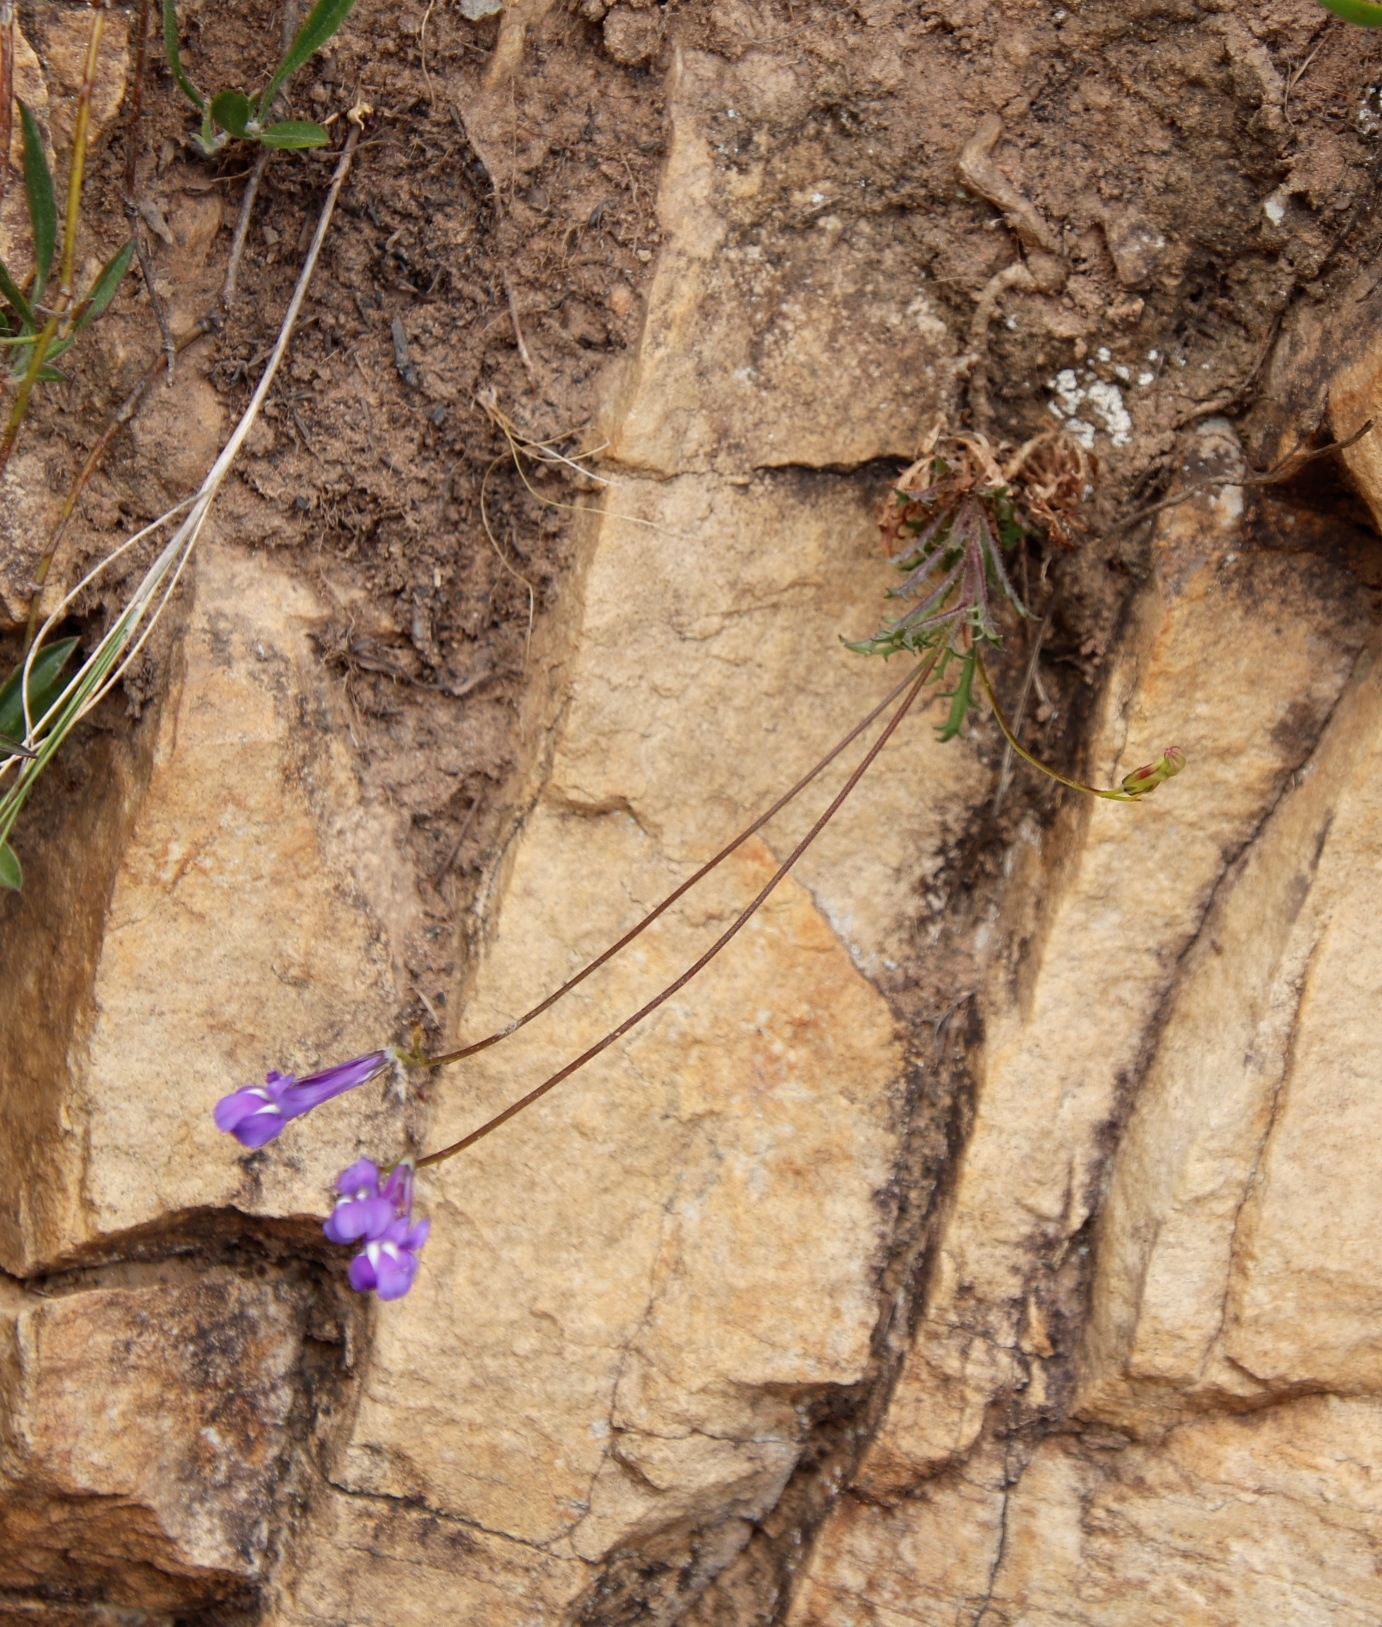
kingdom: Plantae
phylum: Tracheophyta
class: Magnoliopsida
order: Asterales
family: Campanulaceae
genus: Lobelia
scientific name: Lobelia coronopifolia
